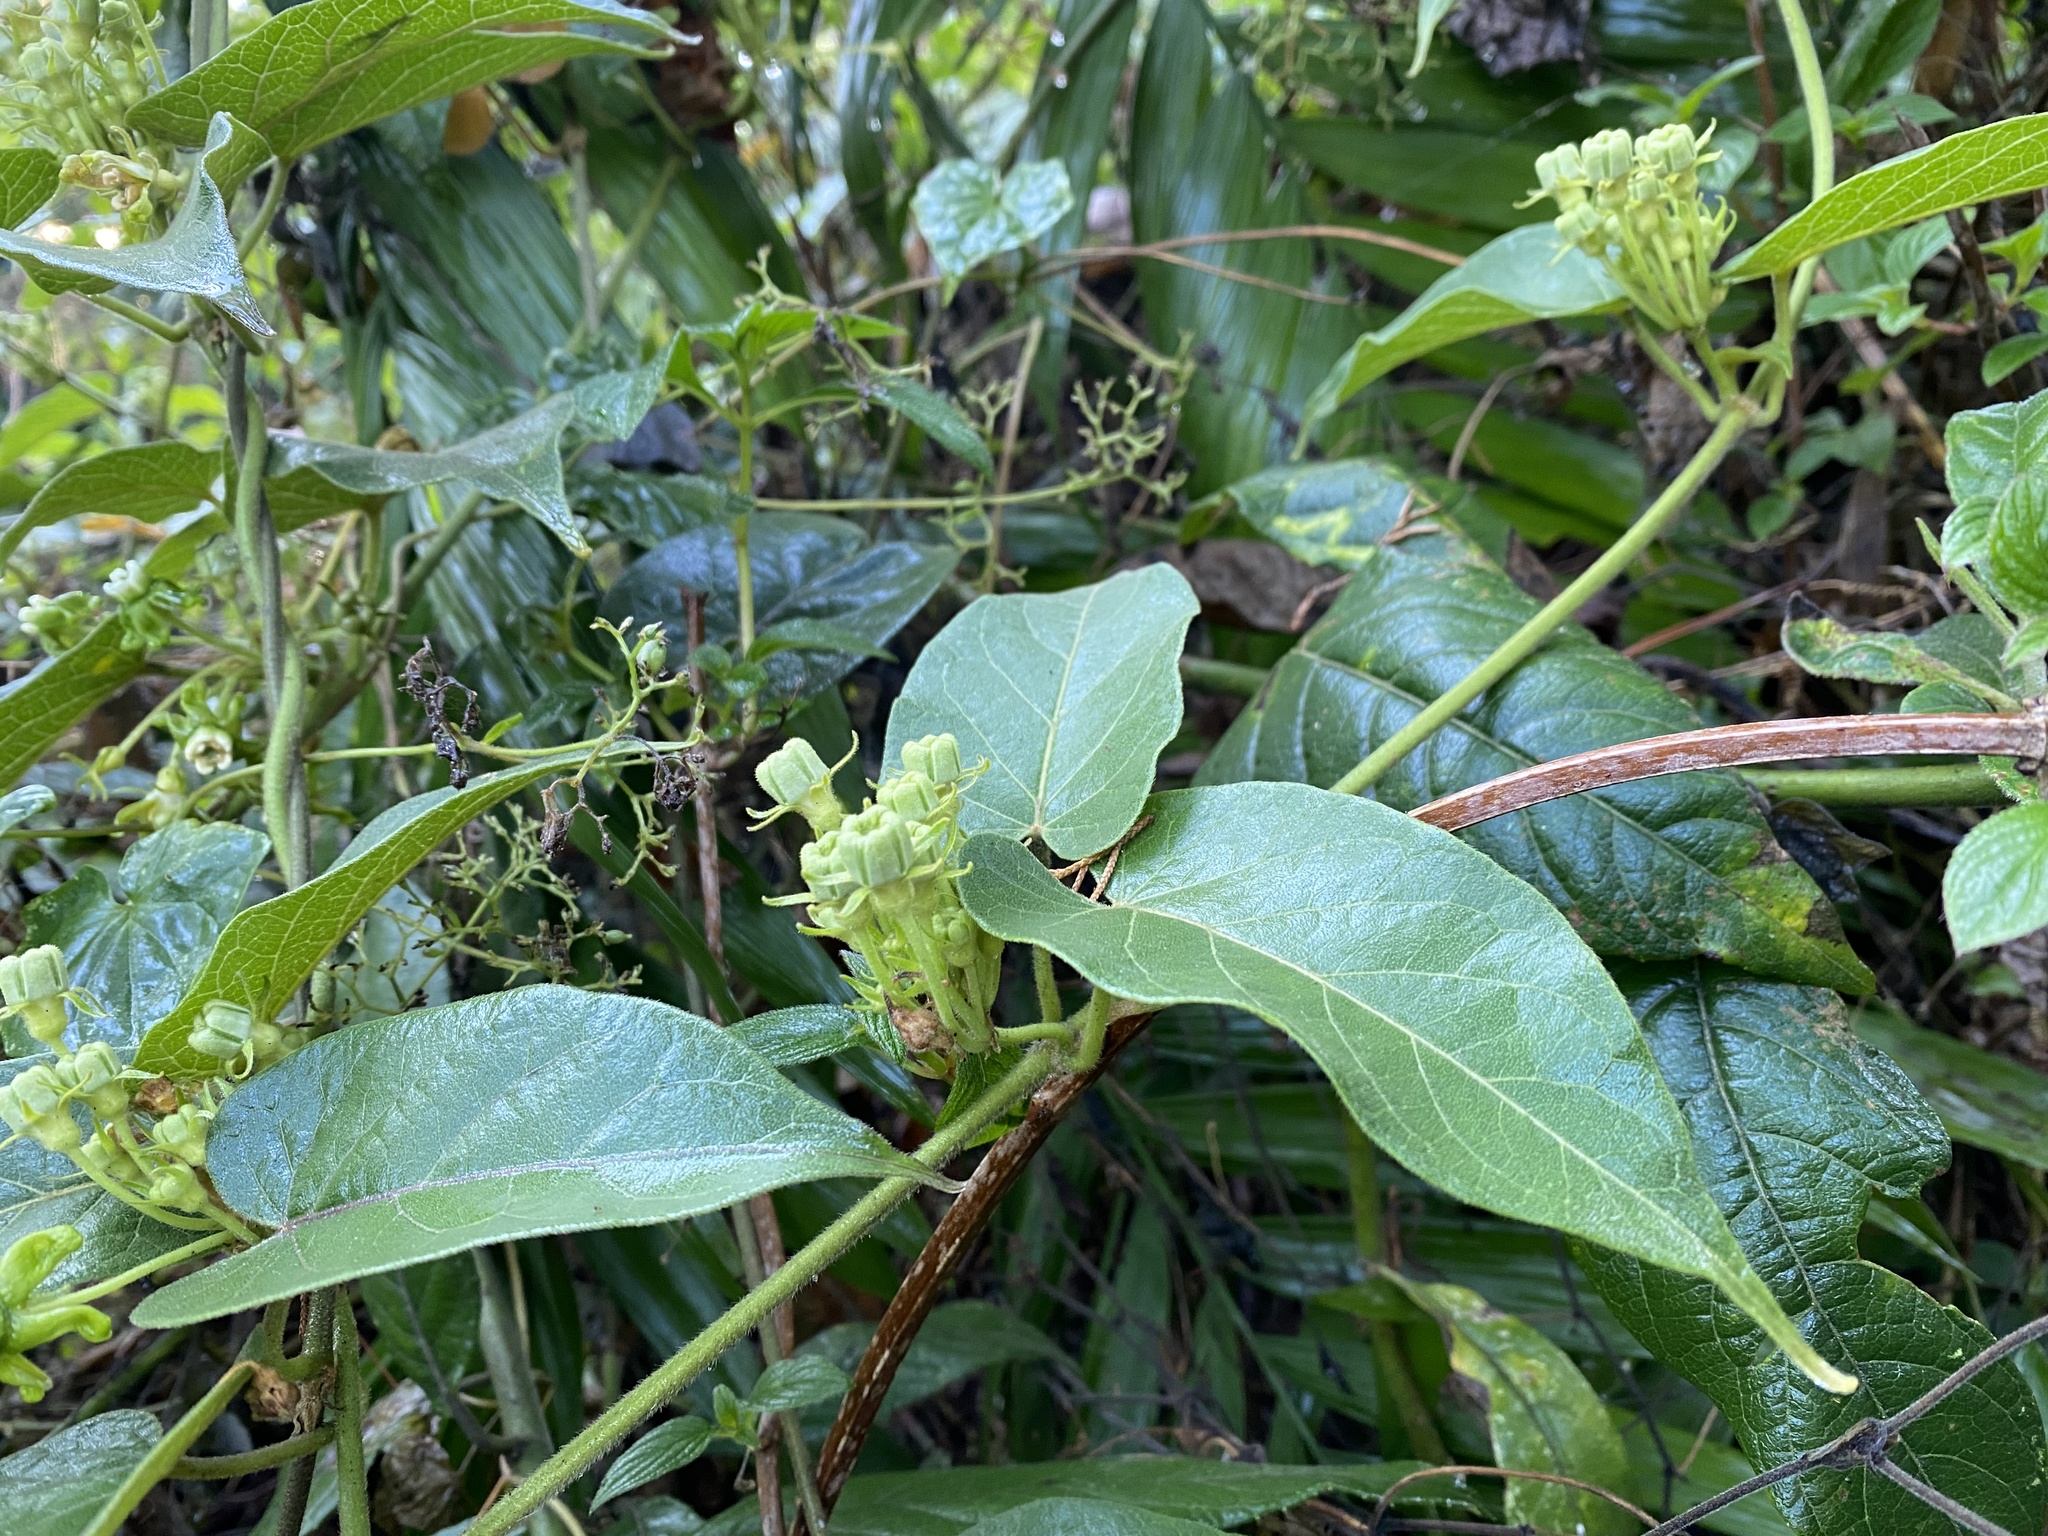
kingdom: Plantae
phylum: Tracheophyta
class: Magnoliopsida
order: Gentianales
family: Apocynaceae
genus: Gonolobus
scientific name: Gonolobus lasiostemma
